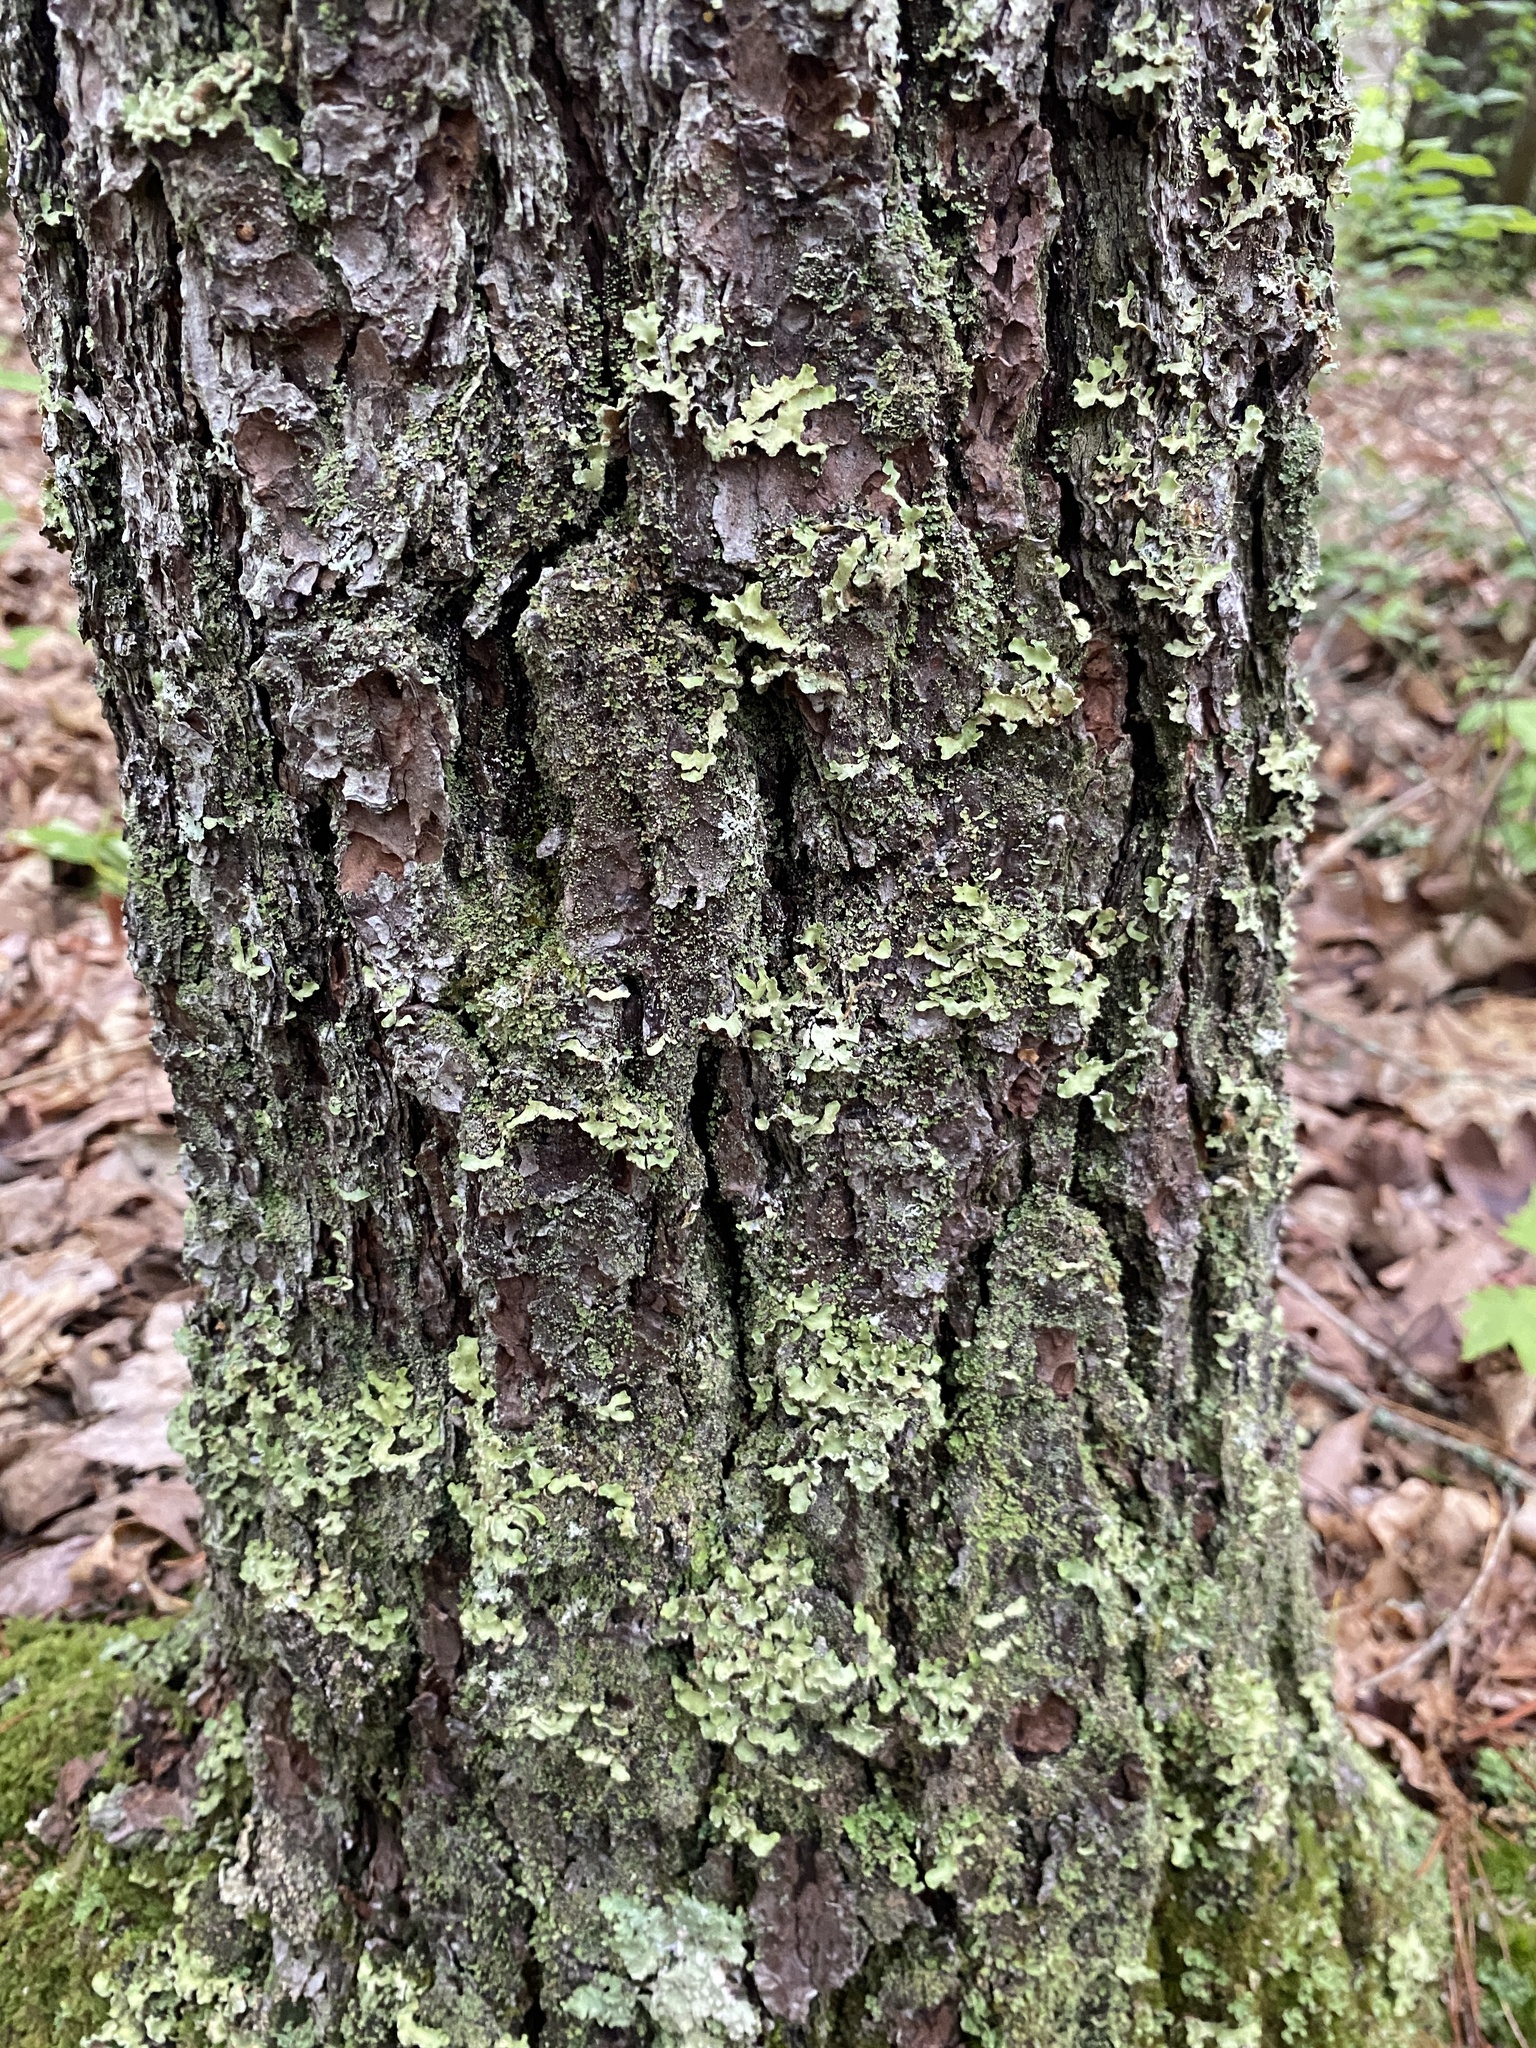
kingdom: Fungi
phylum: Ascomycota
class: Lecanoromycetes
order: Lecanorales
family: Parmeliaceae
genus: Usnocetraria
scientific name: Usnocetraria oakesiana
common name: Yellow ribbon lichen
